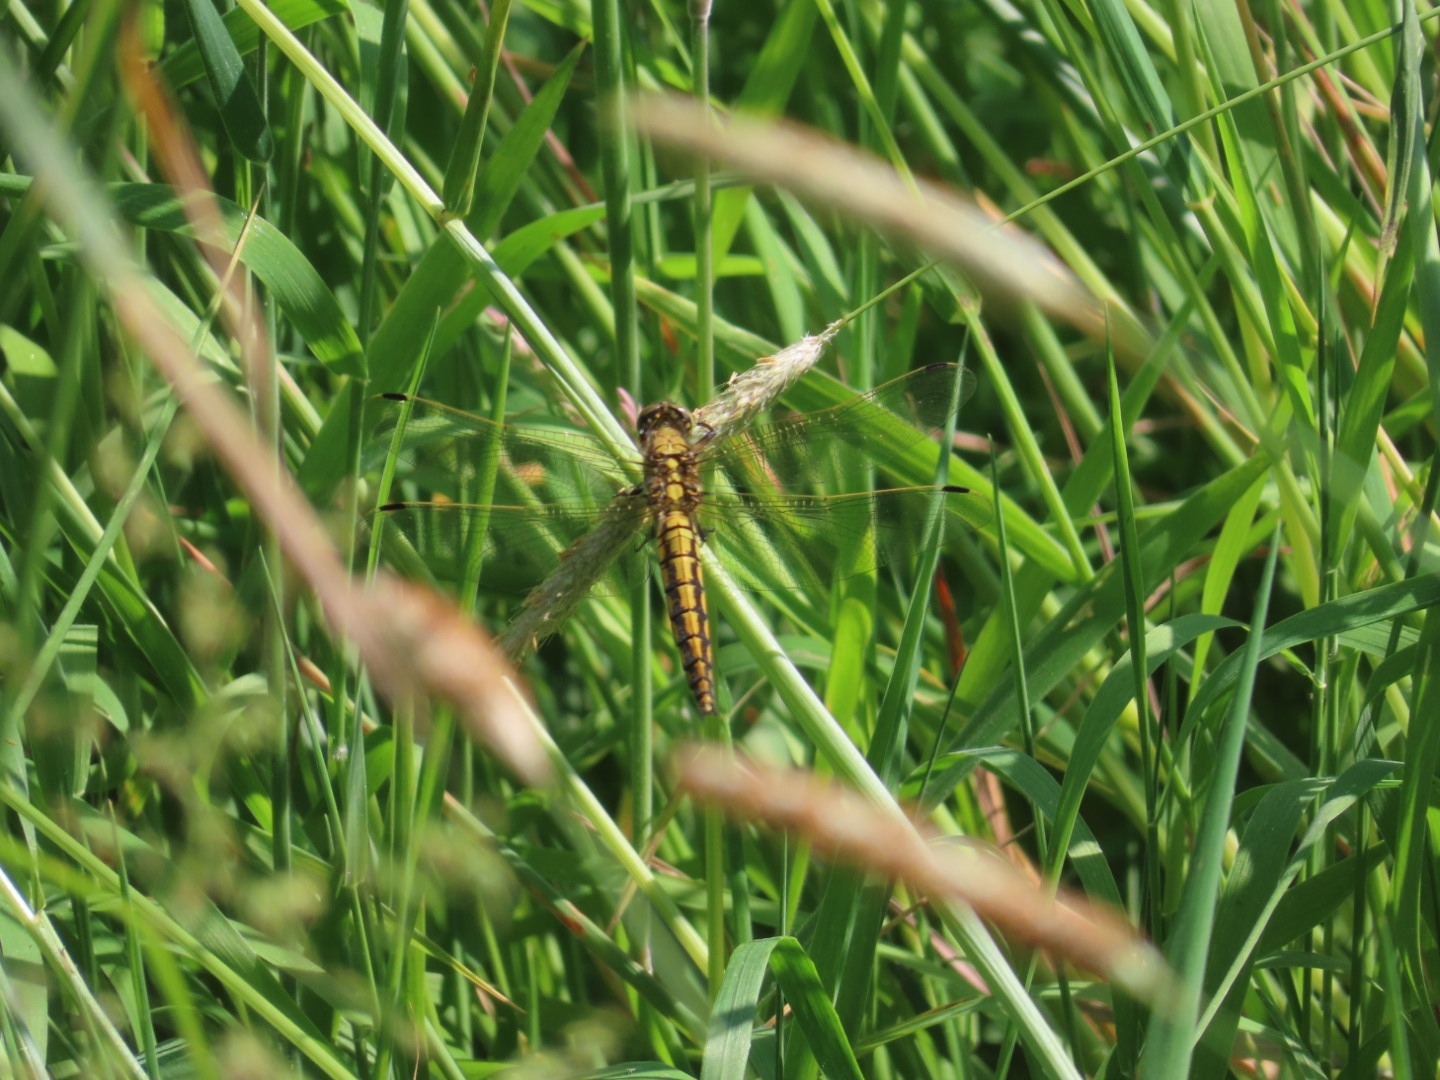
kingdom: Animalia
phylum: Arthropoda
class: Insecta
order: Odonata
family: Libellulidae
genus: Orthetrum
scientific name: Orthetrum cancellatum
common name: Black-tailed skimmer
